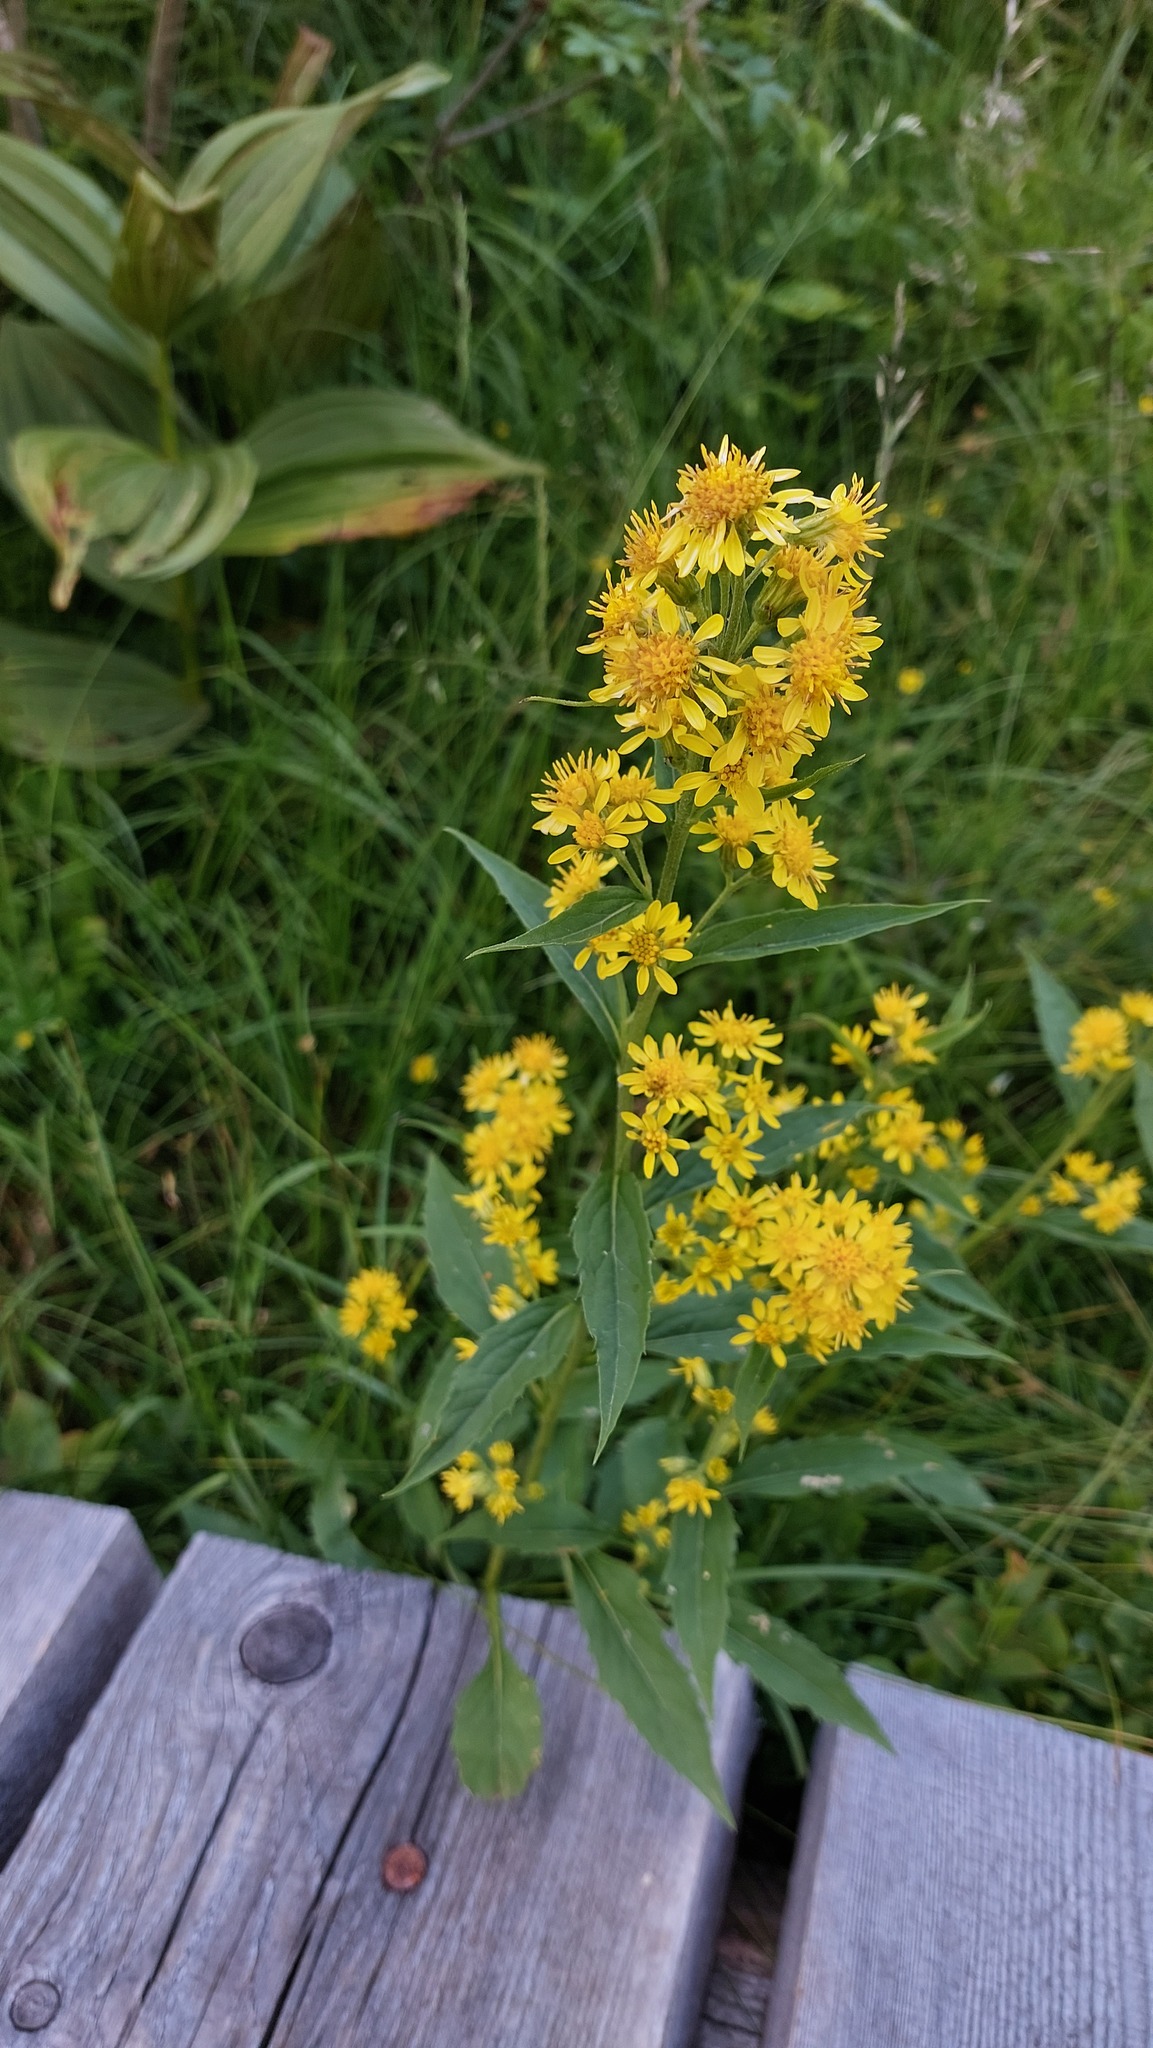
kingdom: Plantae
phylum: Tracheophyta
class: Magnoliopsida
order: Asterales
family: Asteraceae
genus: Solidago
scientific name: Solidago virgaurea
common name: Goldenrod
